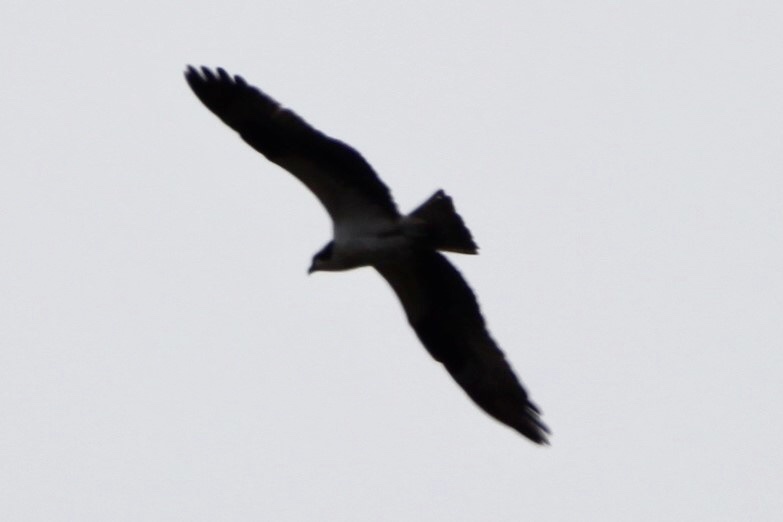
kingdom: Animalia
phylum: Chordata
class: Aves
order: Accipitriformes
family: Pandionidae
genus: Pandion
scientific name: Pandion haliaetus
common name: Osprey
